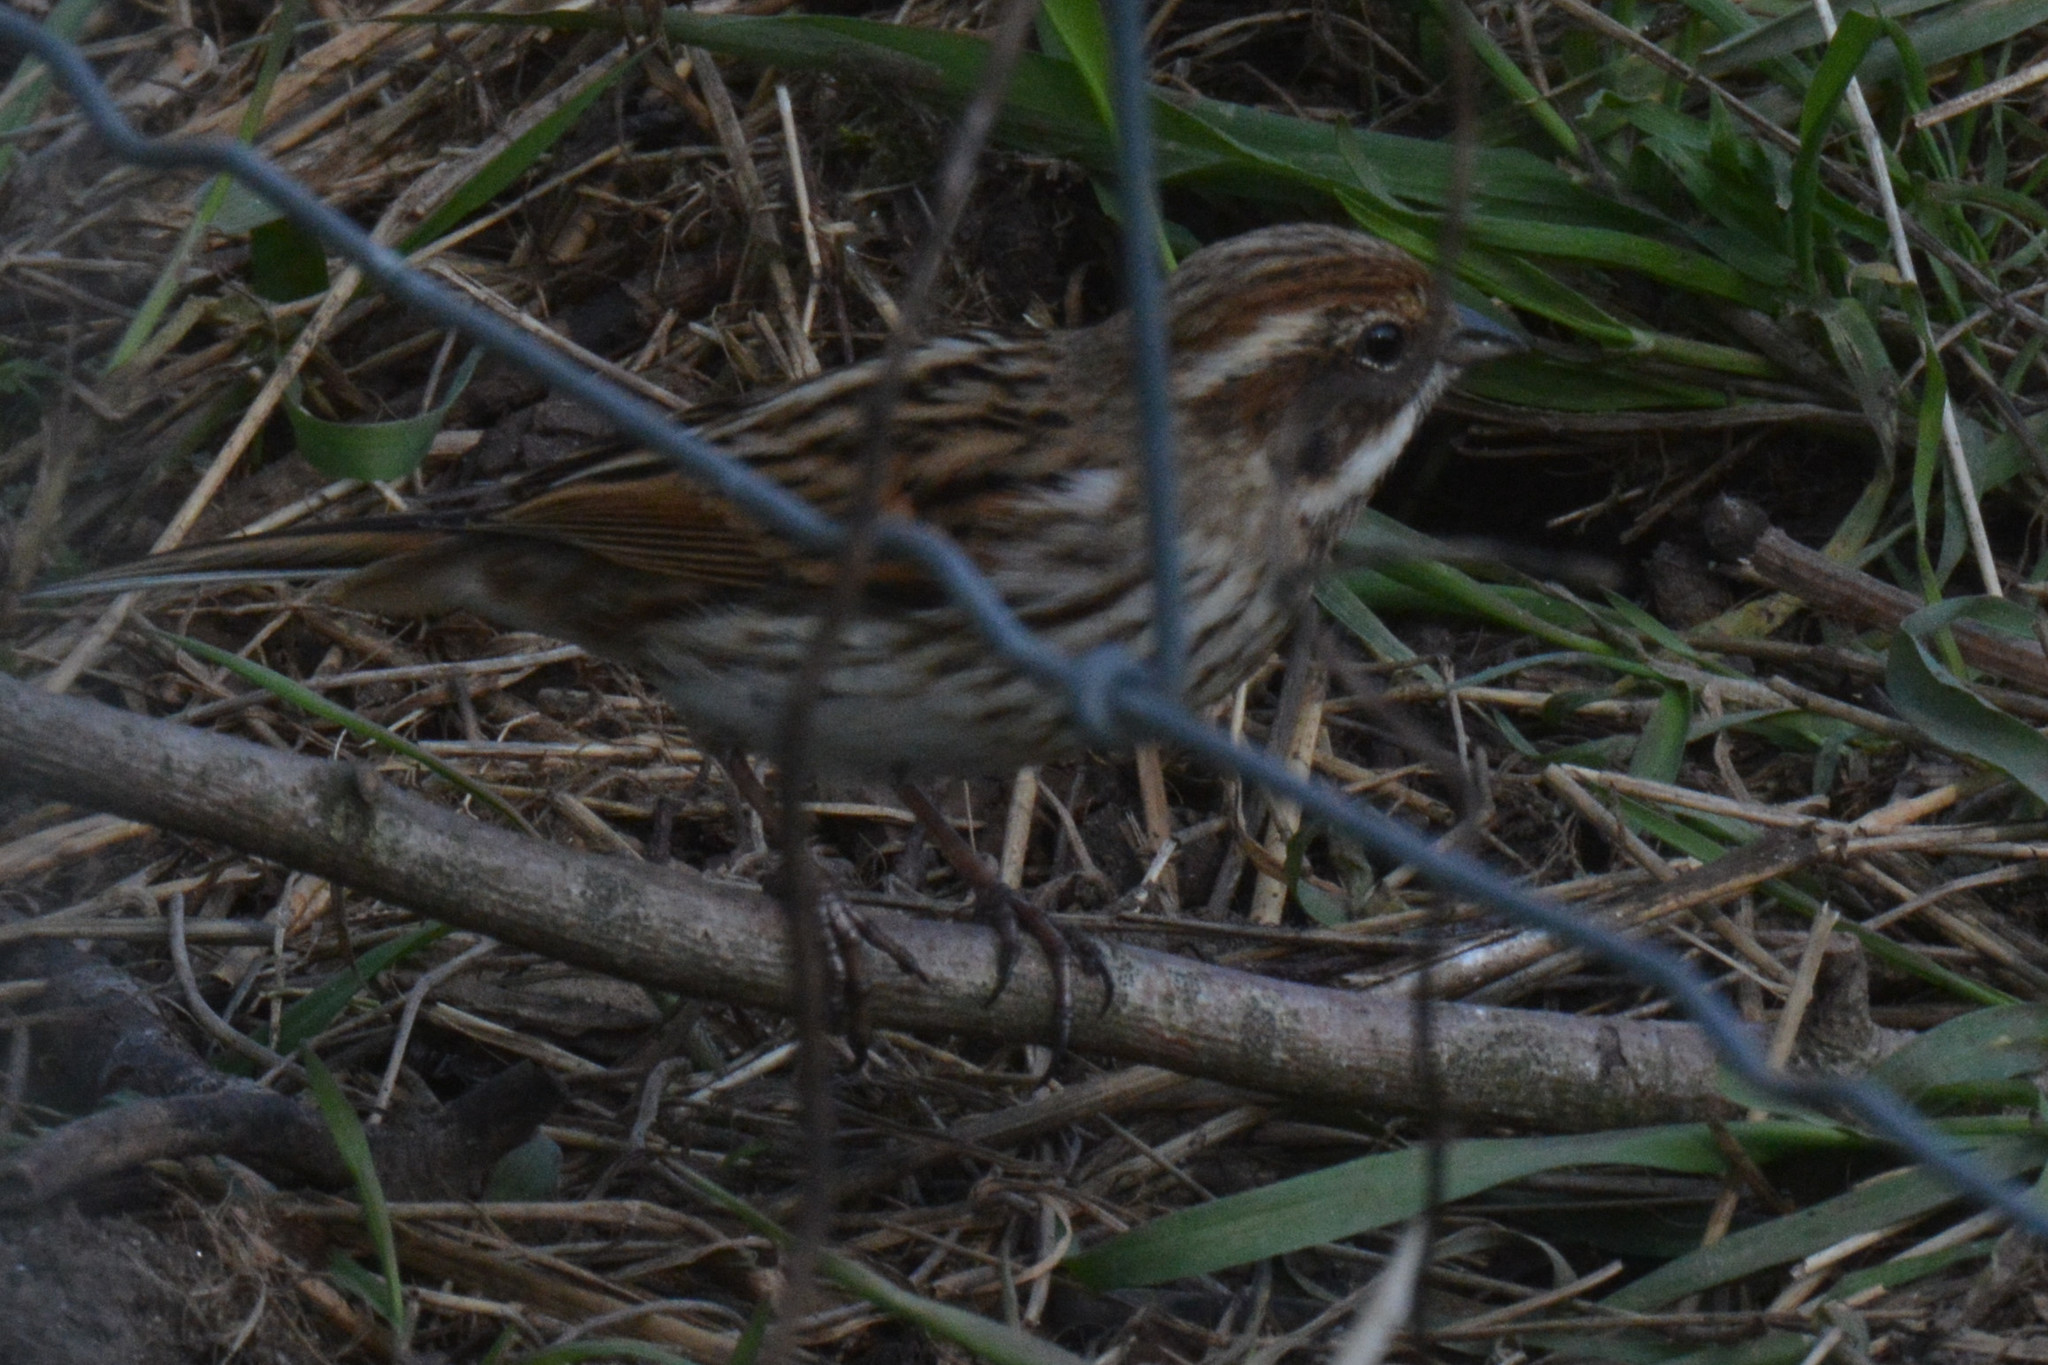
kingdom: Animalia
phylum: Chordata
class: Aves
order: Passeriformes
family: Emberizidae
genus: Emberiza
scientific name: Emberiza schoeniclus
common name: Reed bunting
